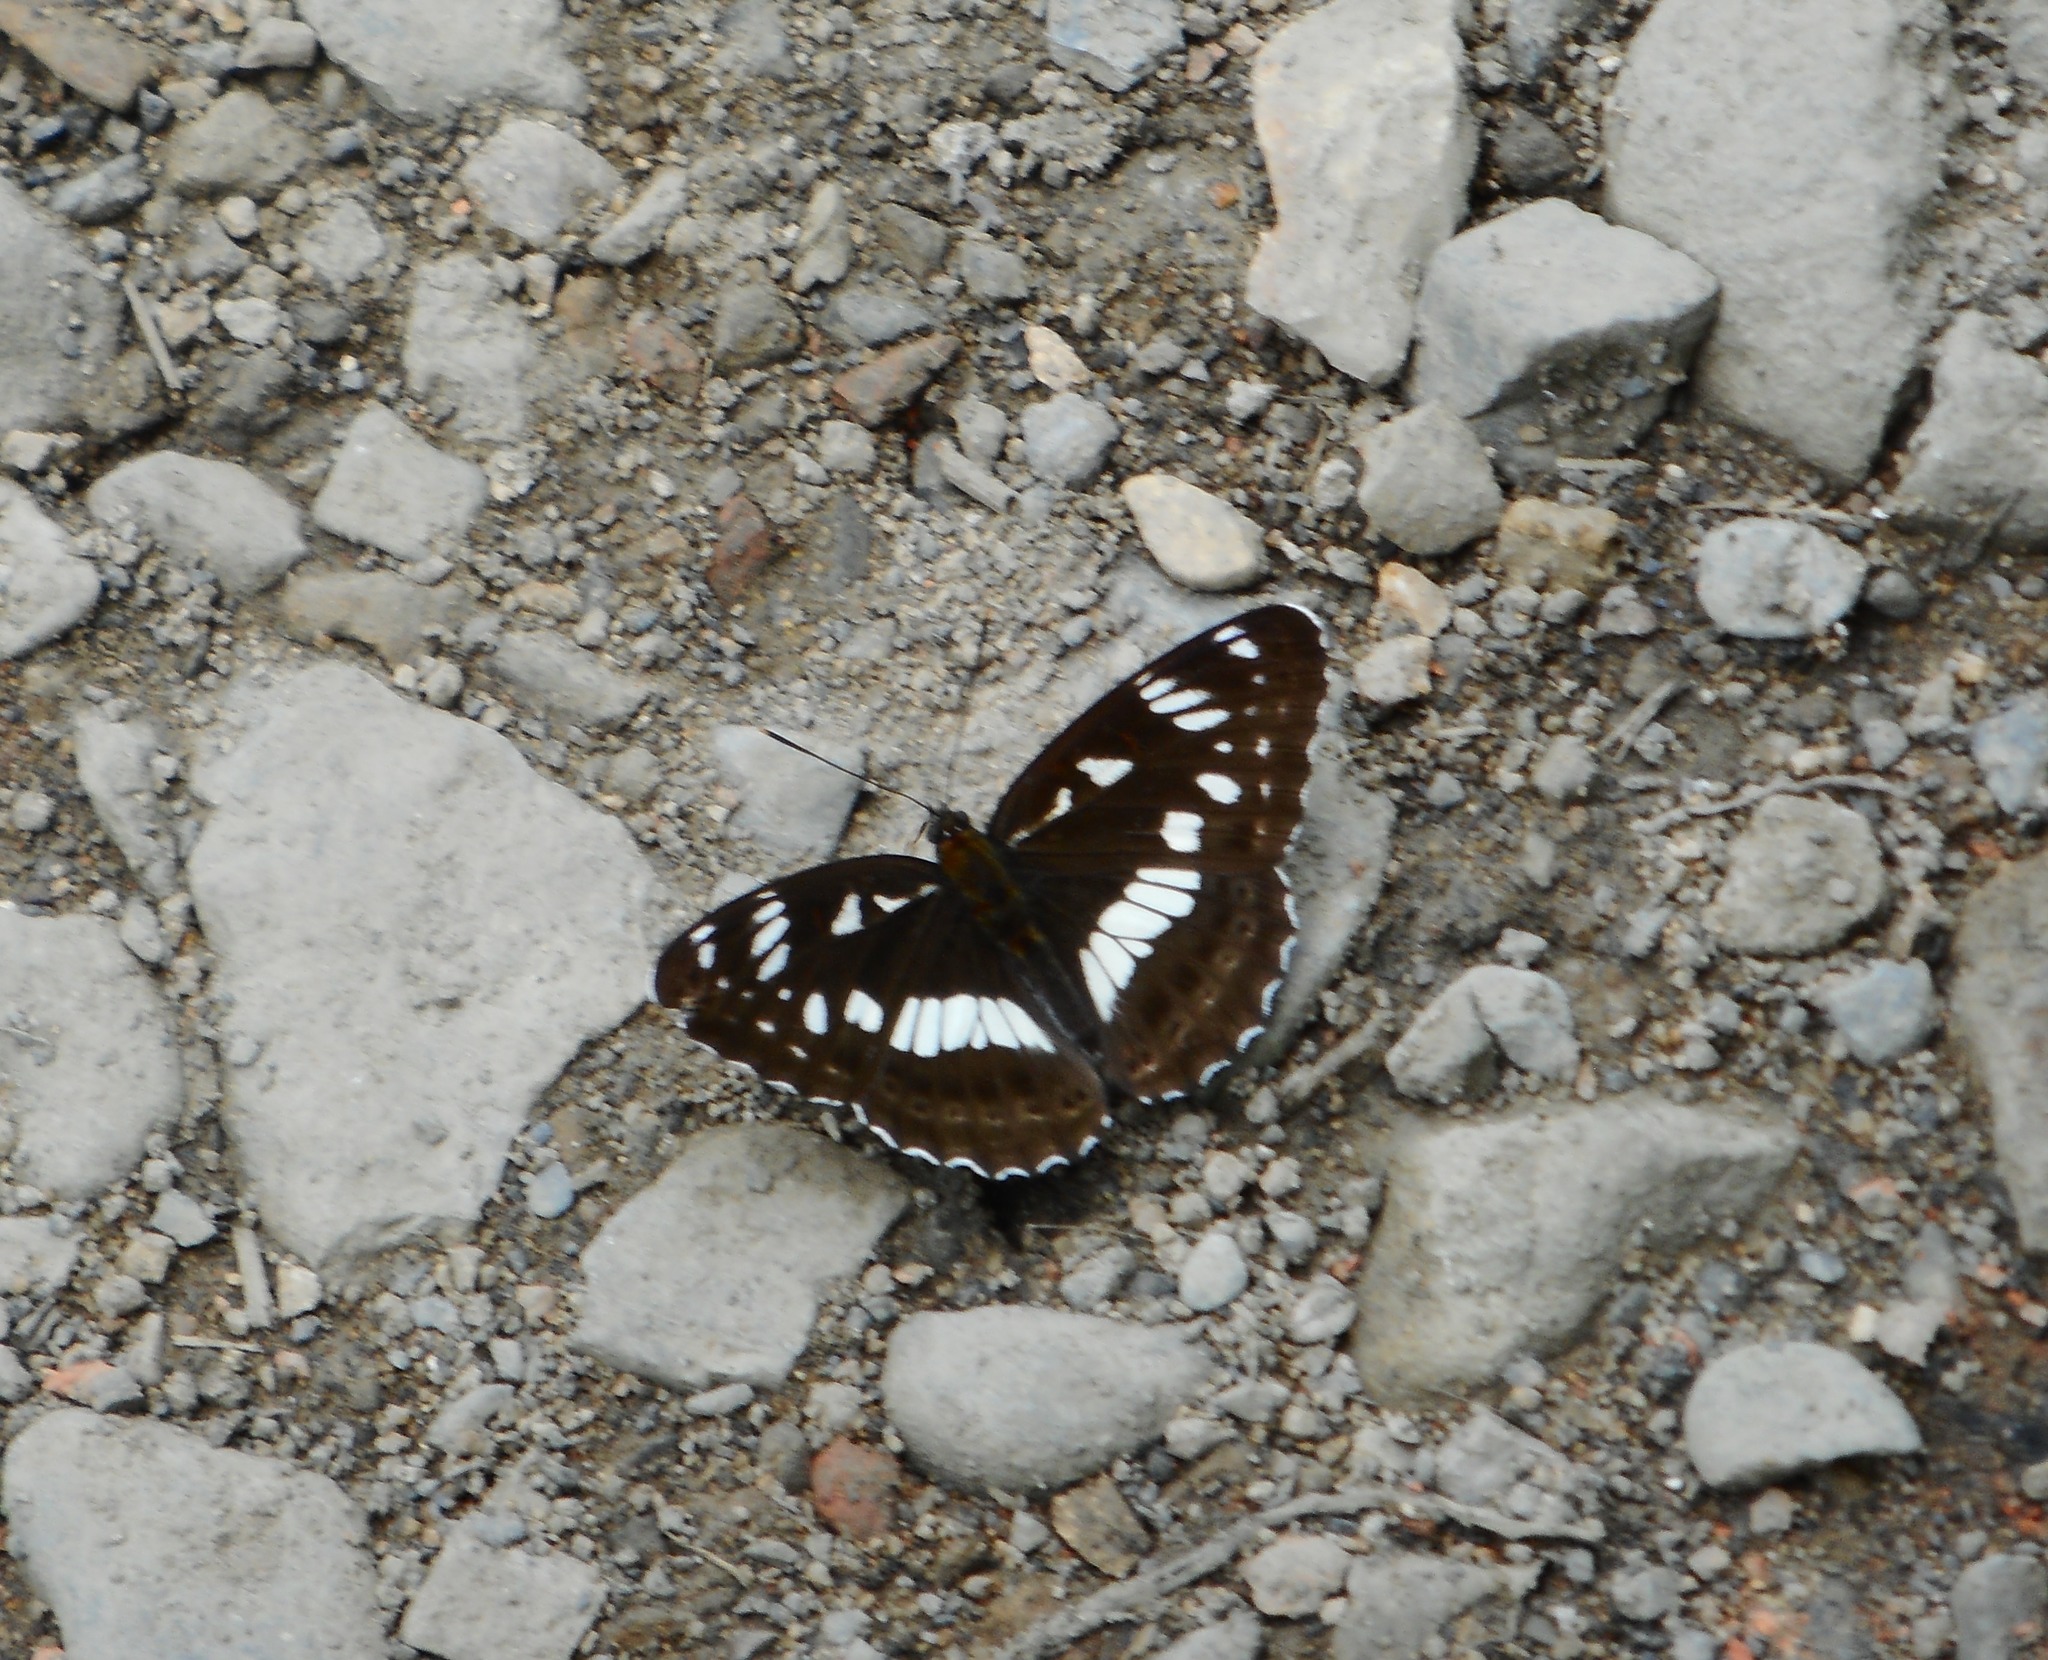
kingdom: Animalia
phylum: Arthropoda
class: Insecta
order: Lepidoptera
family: Nymphalidae
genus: Limenitis
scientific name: Limenitis doerriesi
